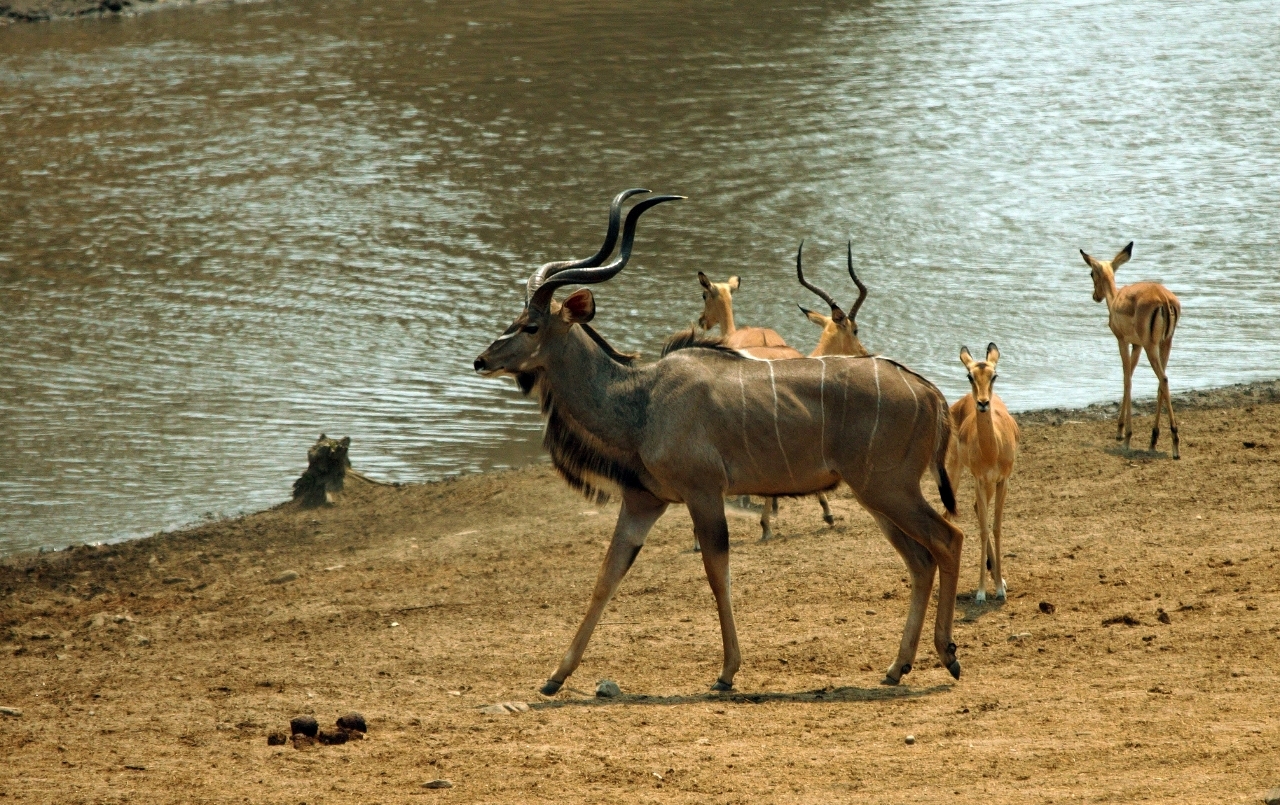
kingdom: Animalia
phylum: Chordata
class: Mammalia
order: Artiodactyla
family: Bovidae
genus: Tragelaphus
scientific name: Tragelaphus strepsiceros
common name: Greater kudu
